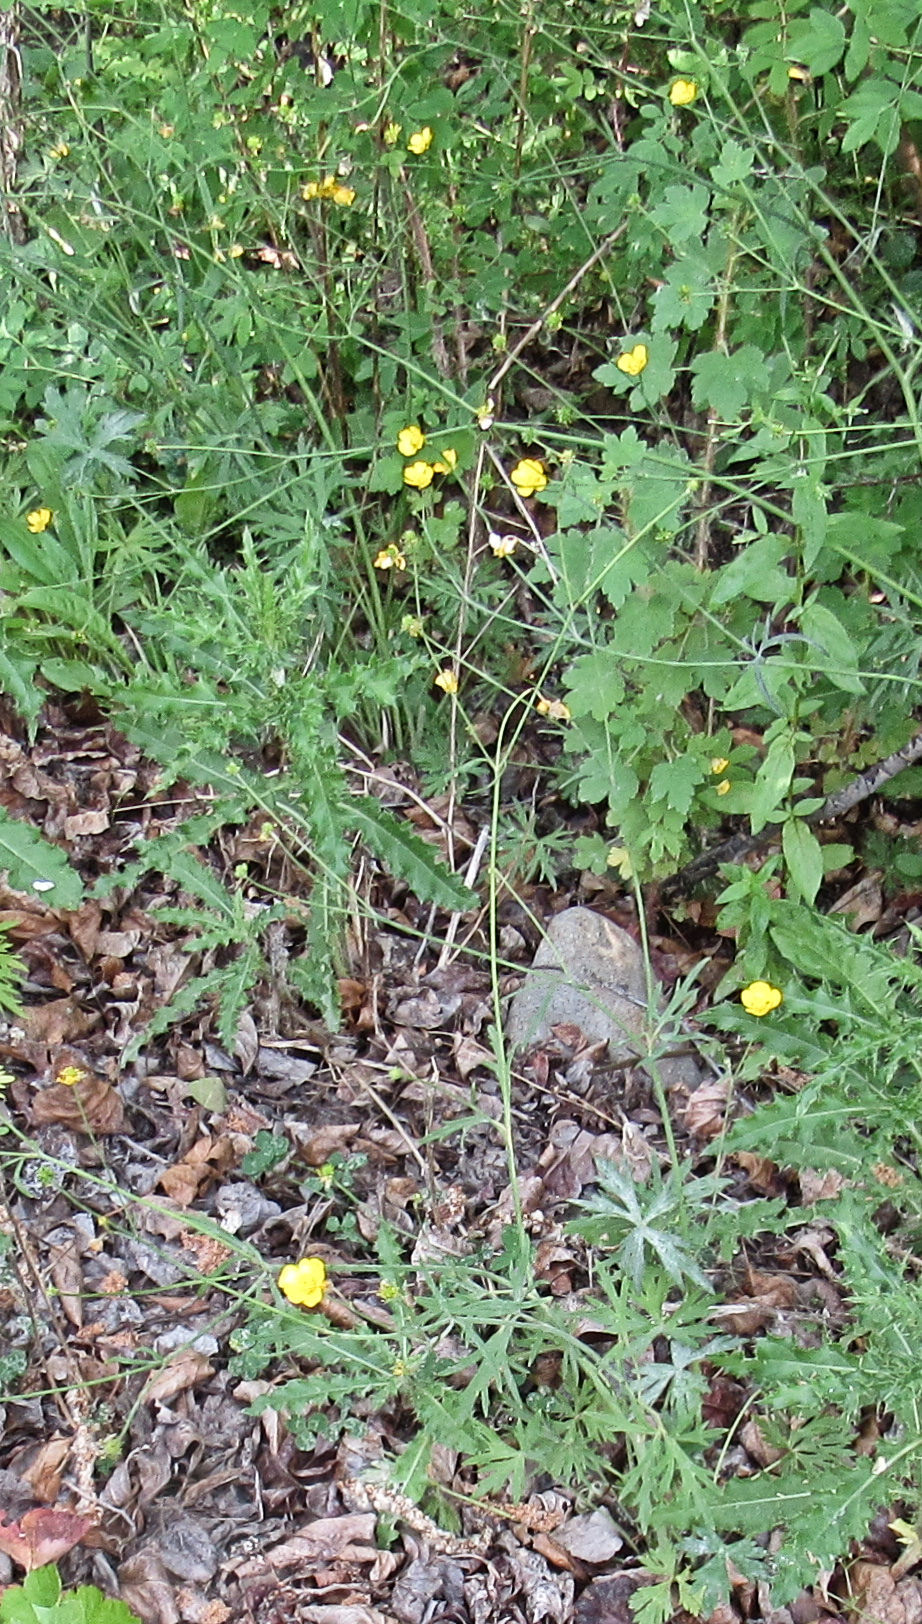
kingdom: Plantae
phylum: Tracheophyta
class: Magnoliopsida
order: Ranunculales
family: Ranunculaceae
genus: Ranunculus
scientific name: Ranunculus acris
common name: Meadow buttercup
